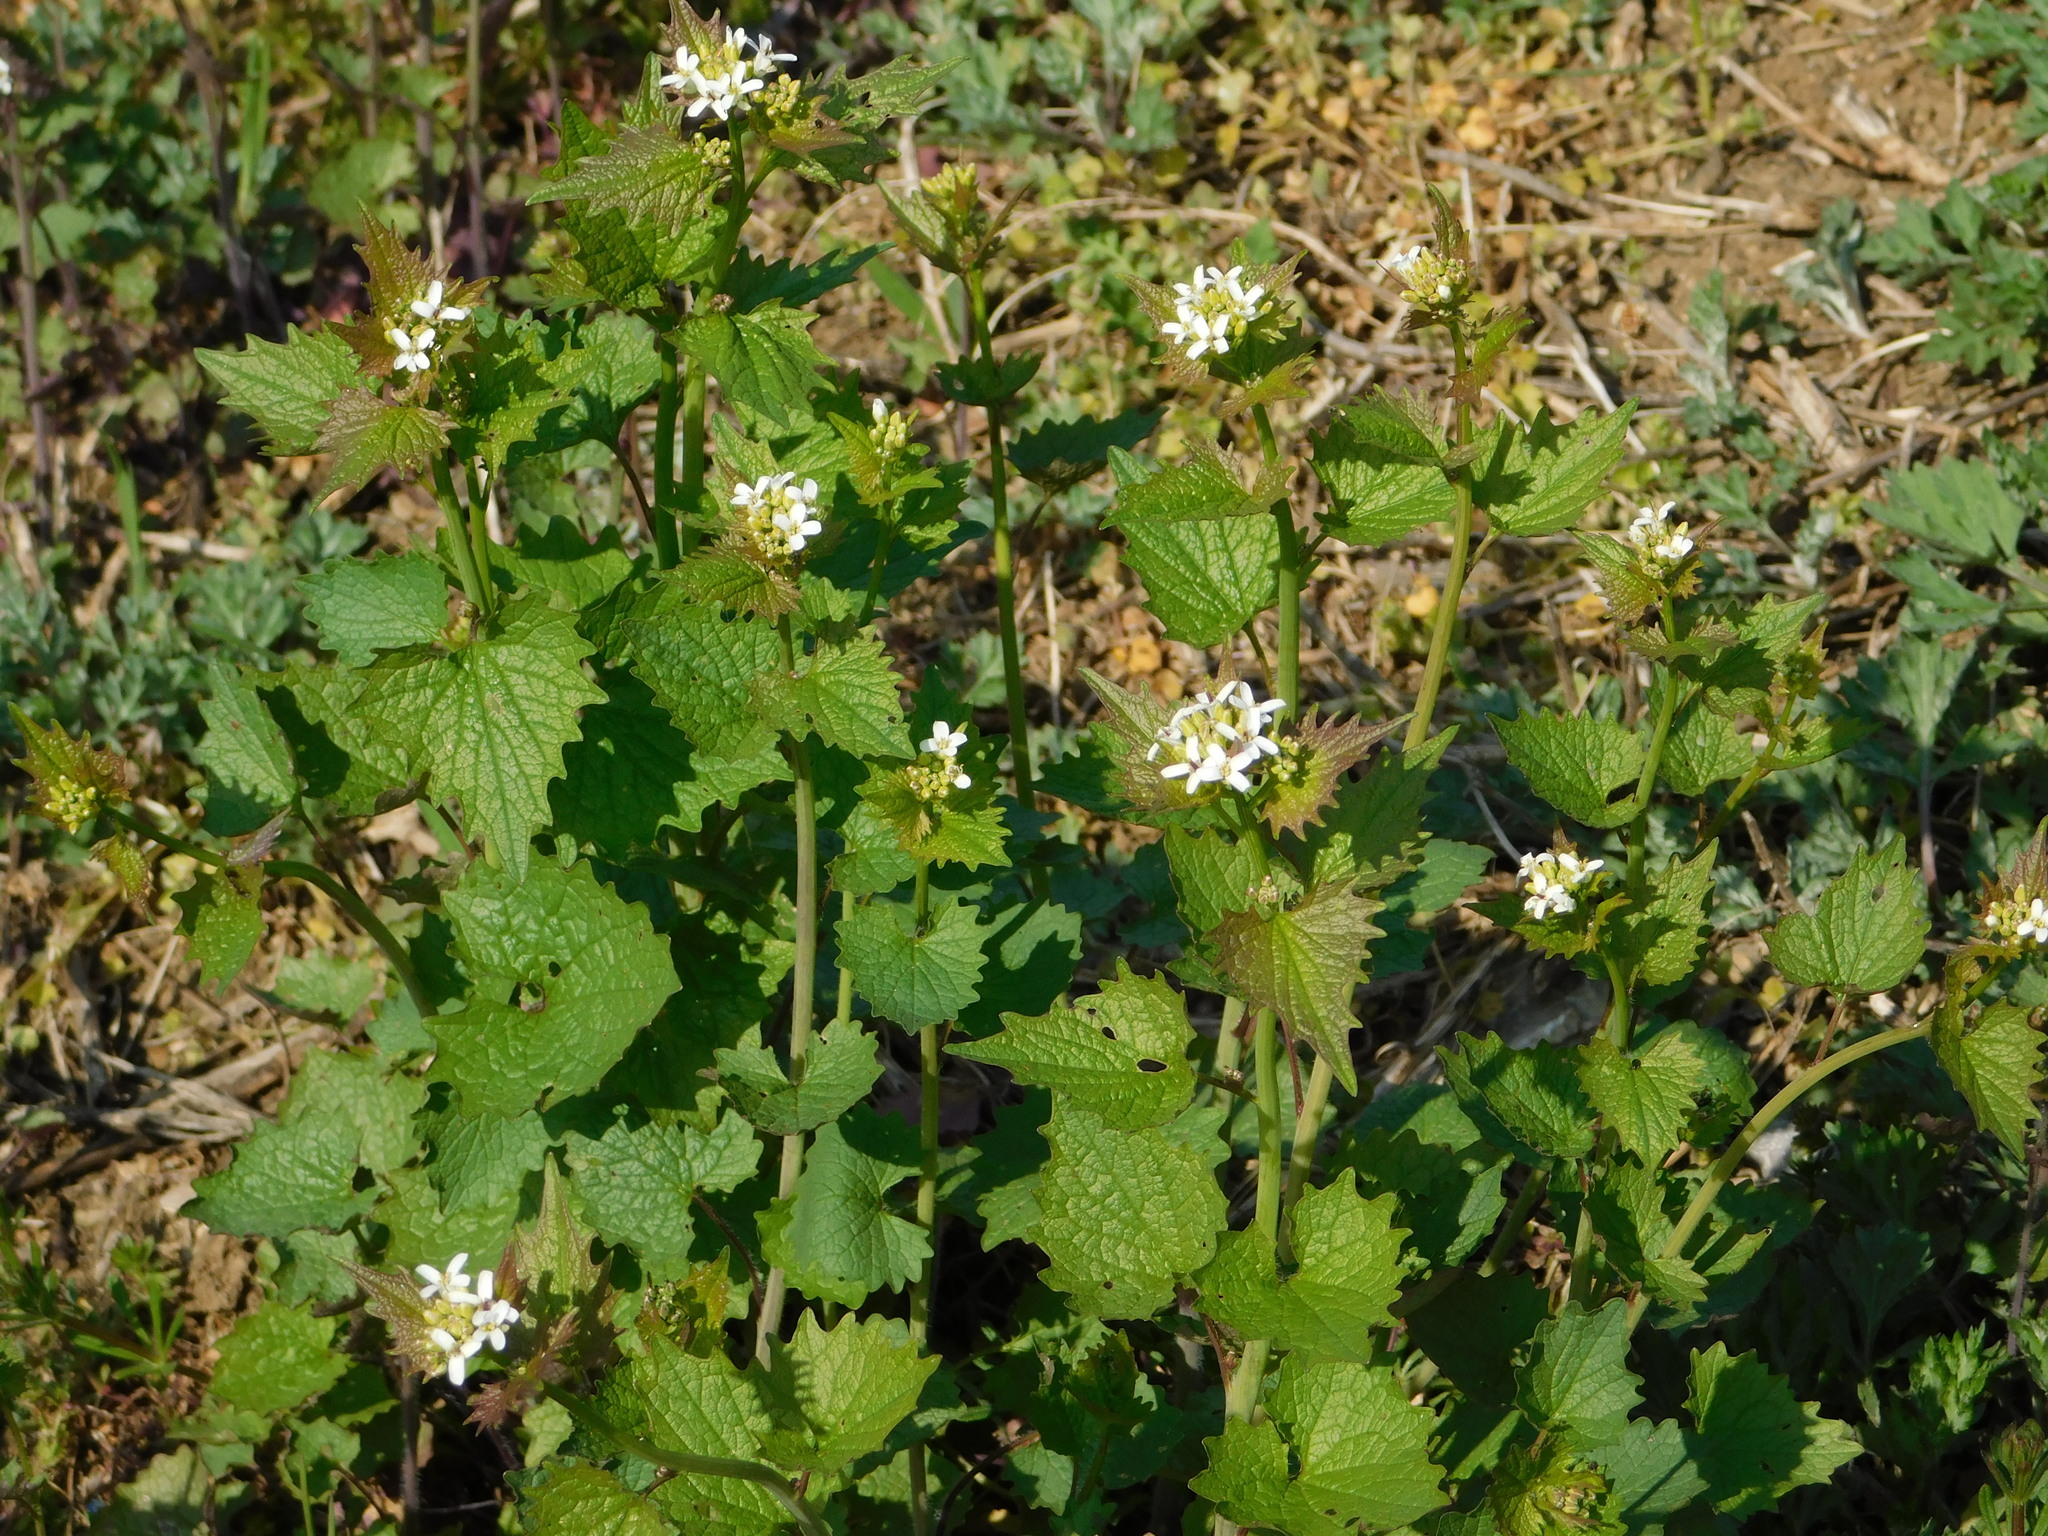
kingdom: Plantae
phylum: Tracheophyta
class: Magnoliopsida
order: Brassicales
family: Brassicaceae
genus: Alliaria
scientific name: Alliaria petiolata
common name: Garlic mustard
